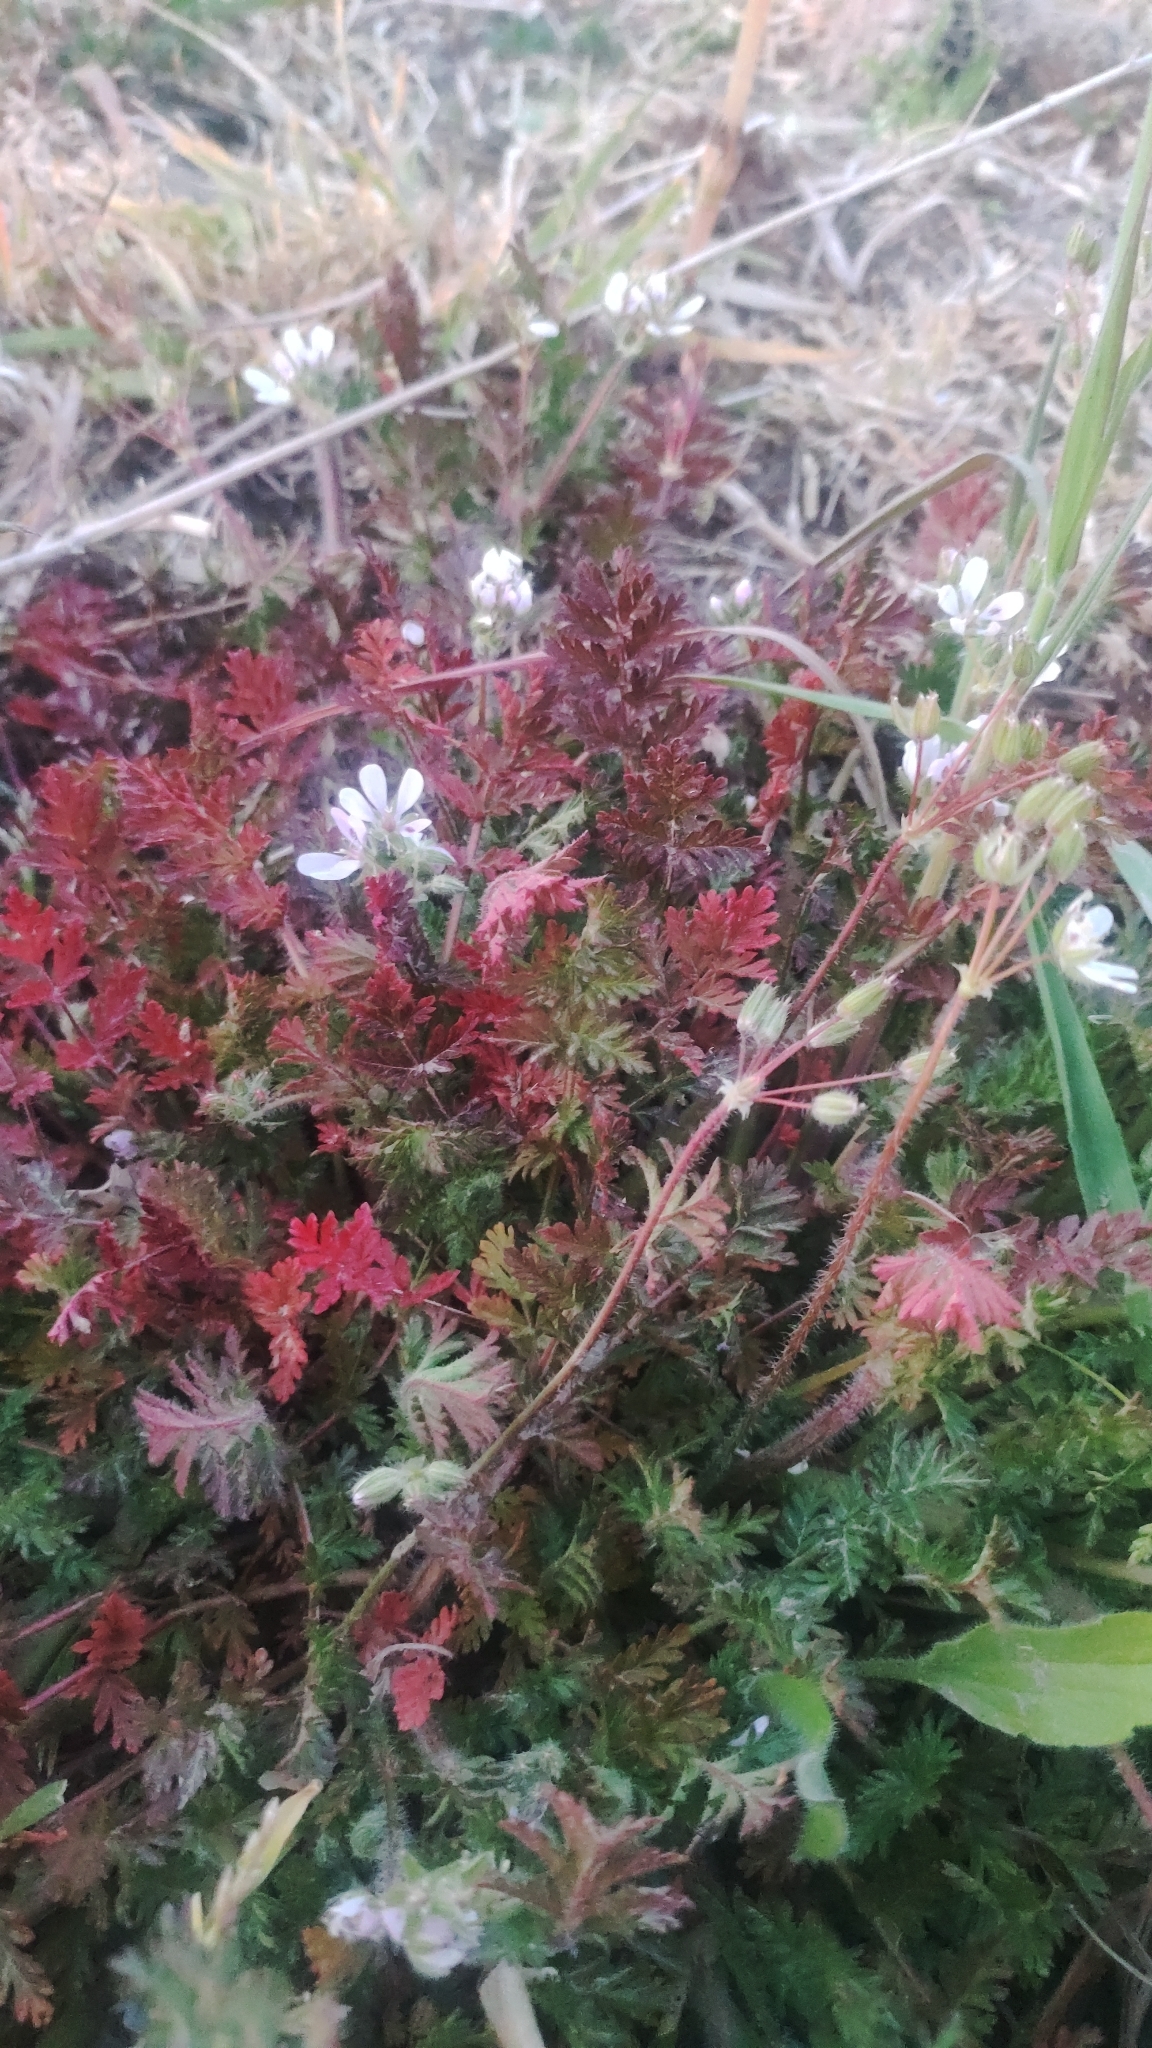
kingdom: Plantae
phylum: Tracheophyta
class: Magnoliopsida
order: Geraniales
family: Geraniaceae
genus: Erodium
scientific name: Erodium cicutarium
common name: Common stork's-bill
